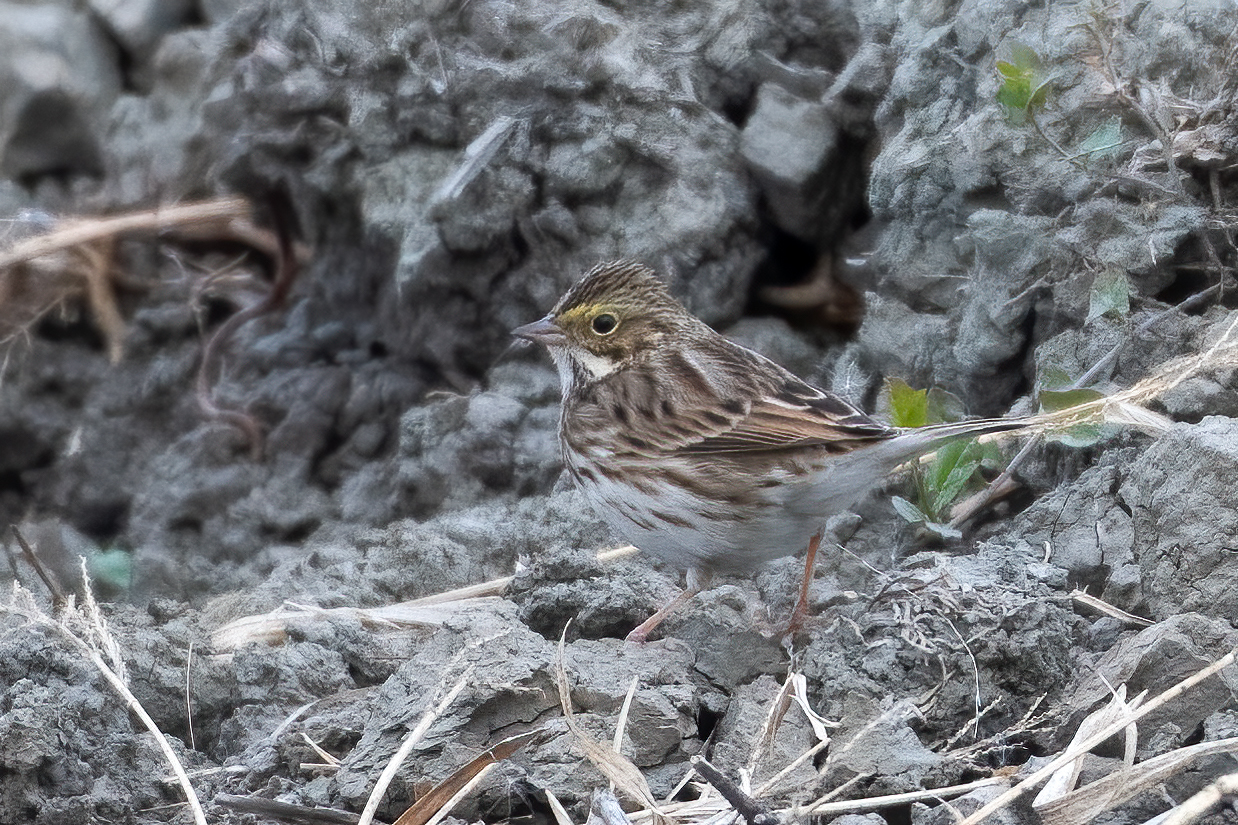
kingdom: Animalia
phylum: Chordata
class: Aves
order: Passeriformes
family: Passerellidae
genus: Passerculus
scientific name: Passerculus sandwichensis
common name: Savannah sparrow
